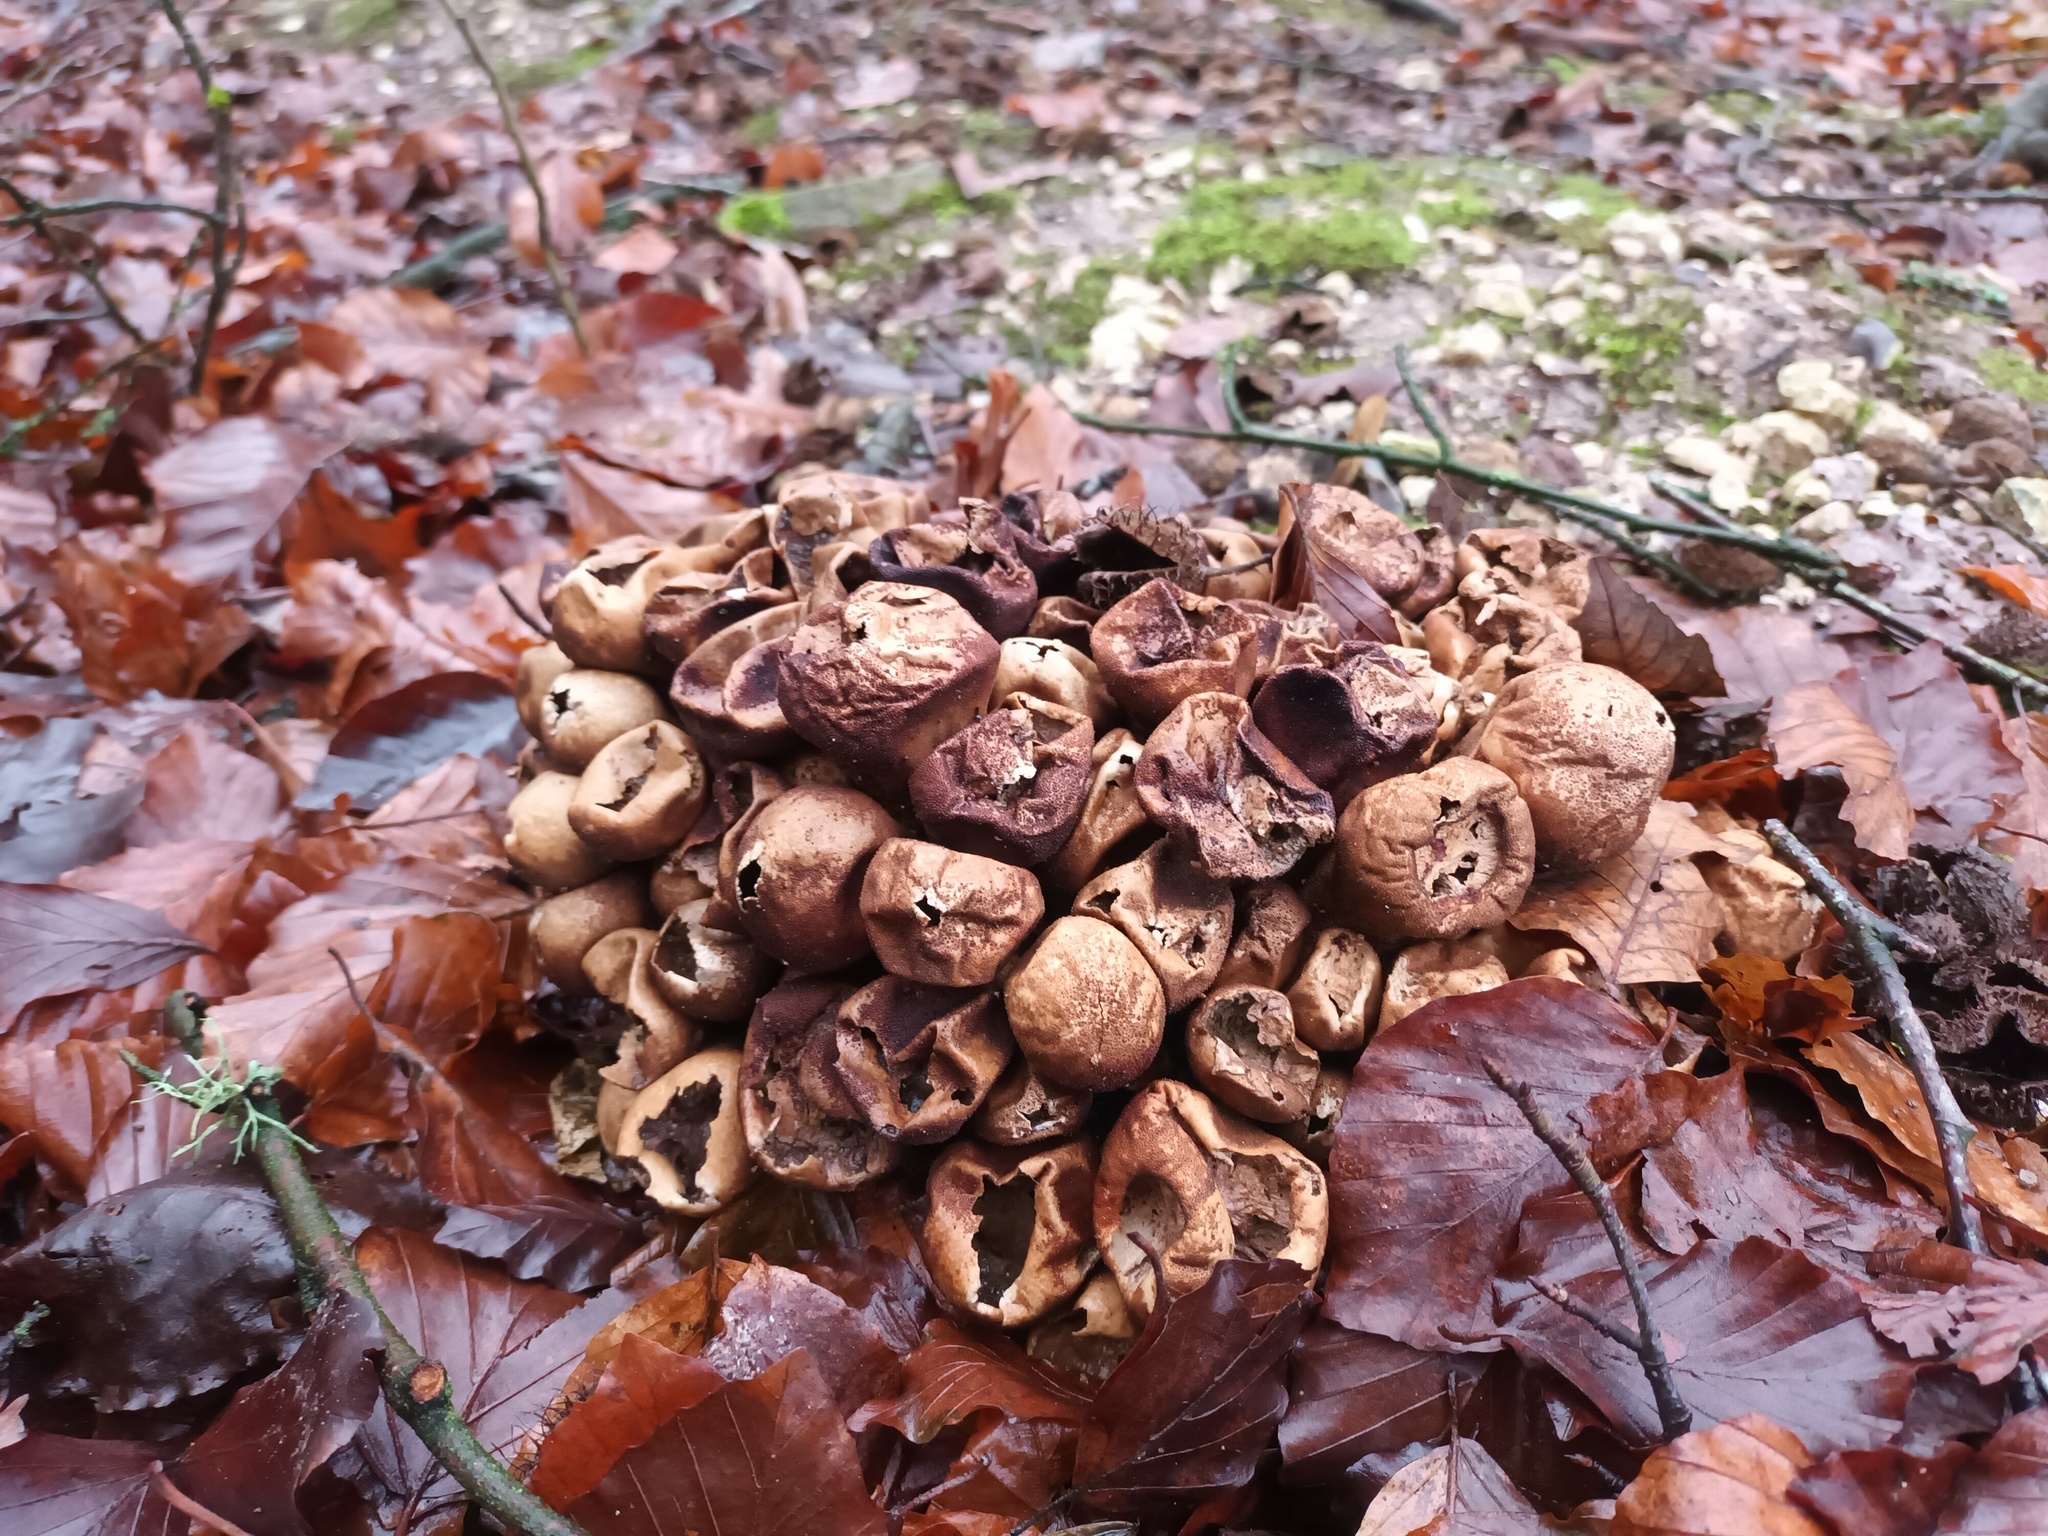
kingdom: Fungi
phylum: Basidiomycota
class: Agaricomycetes
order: Agaricales
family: Lycoperdaceae
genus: Apioperdon
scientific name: Apioperdon pyriforme
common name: Pear-shaped puffball
